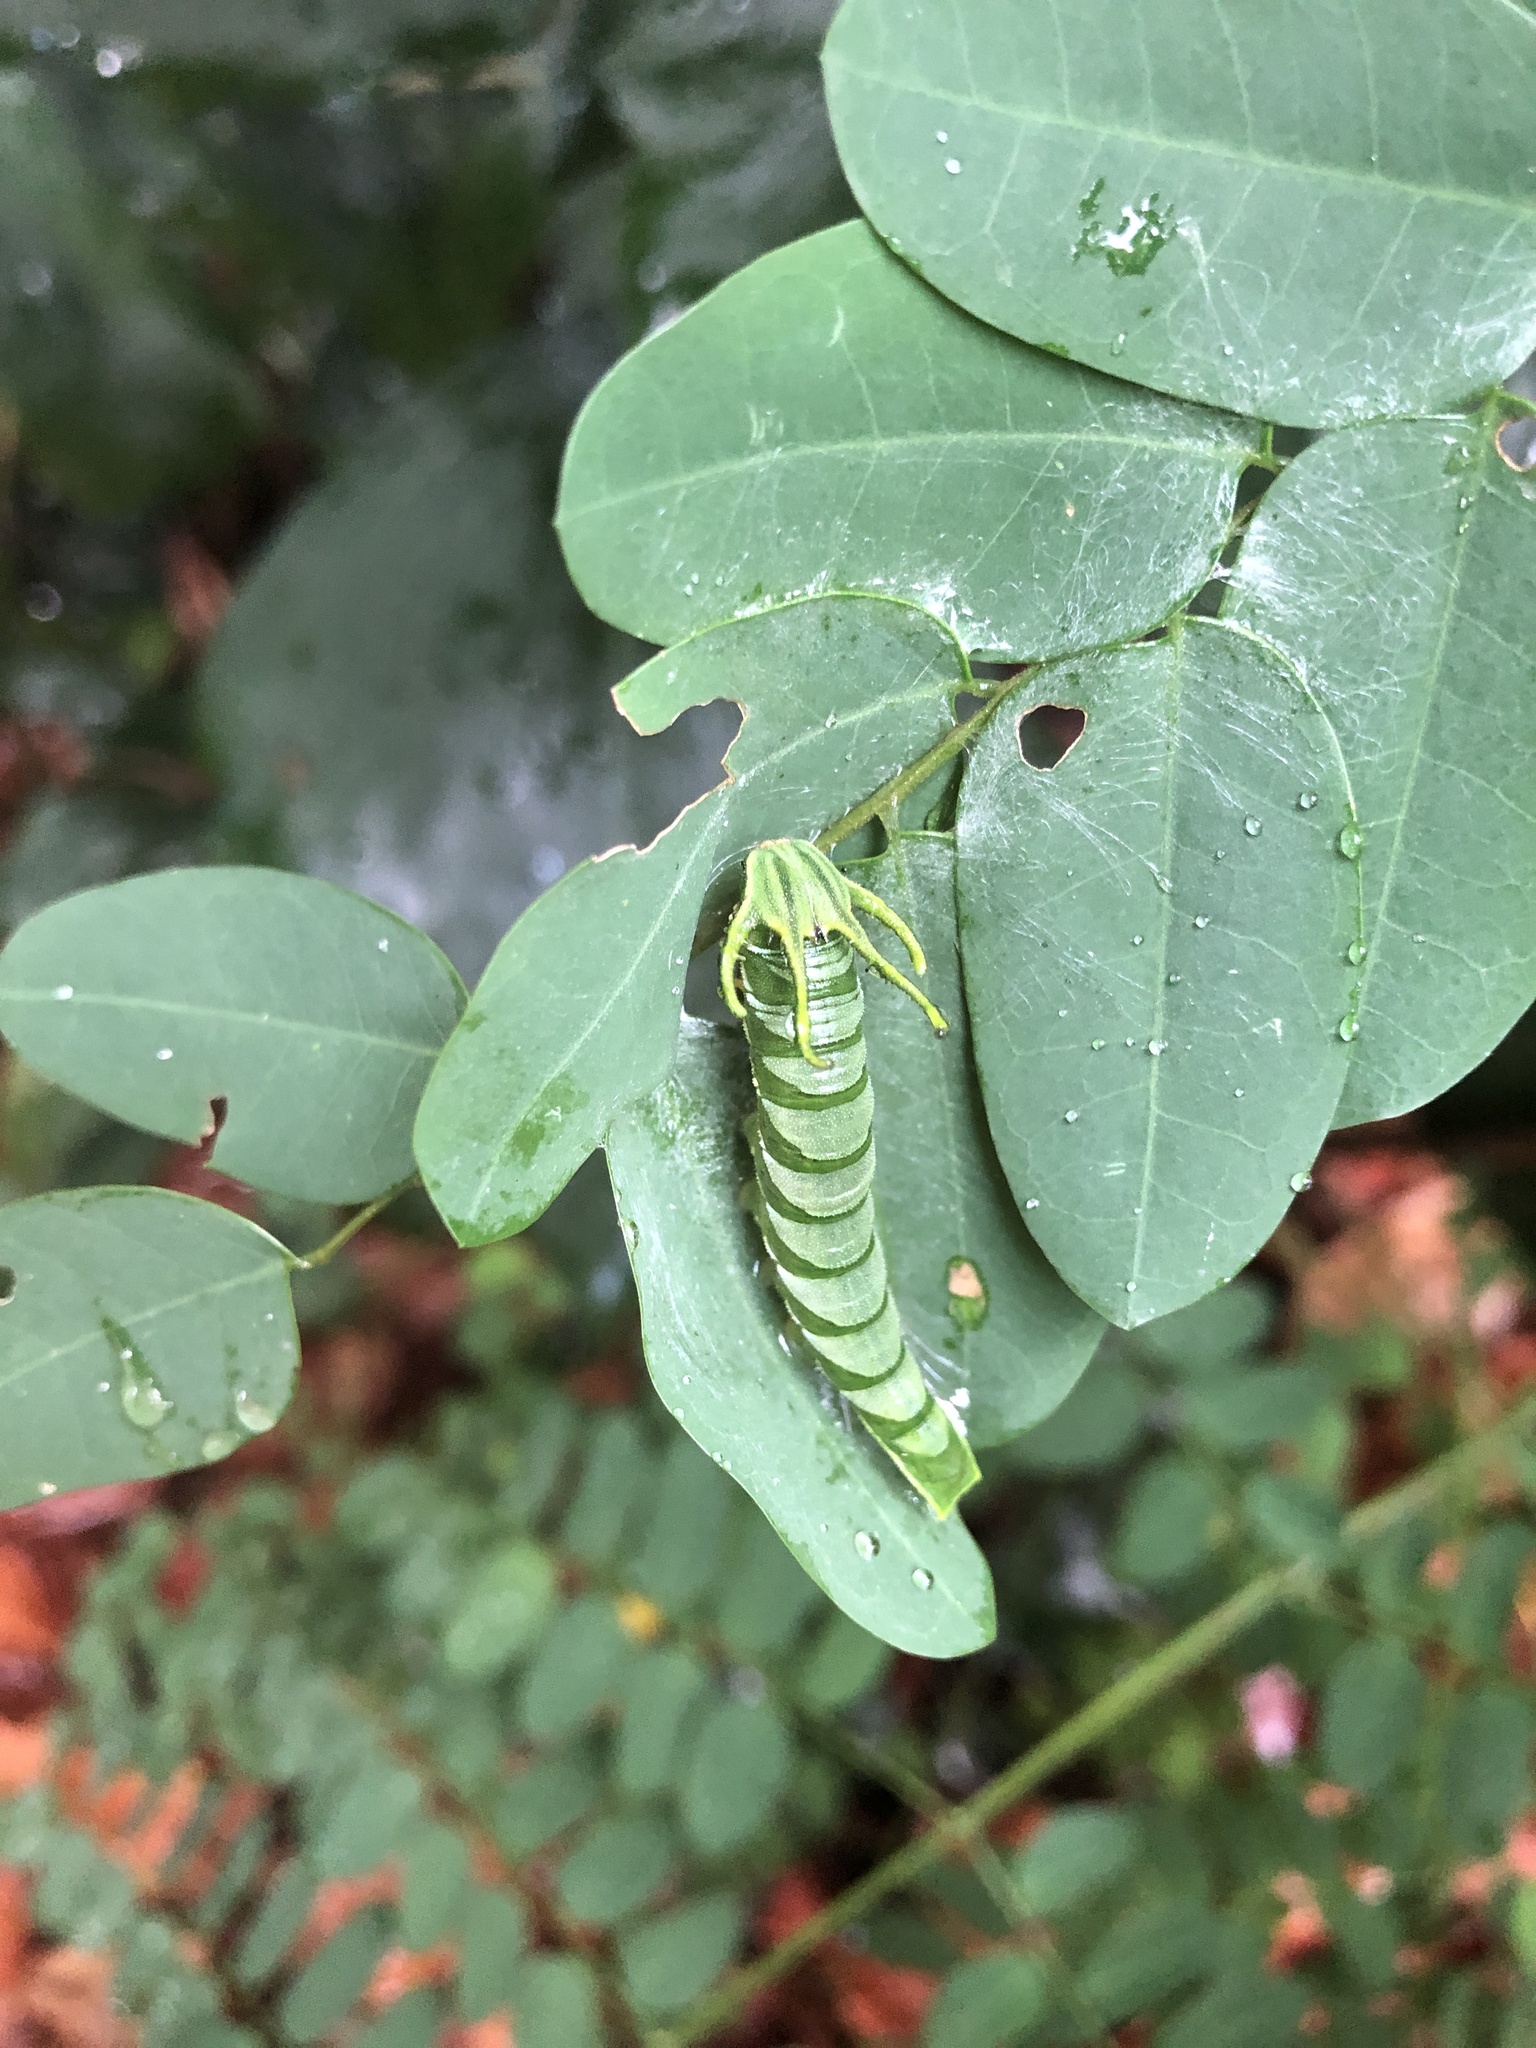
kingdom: Animalia
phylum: Arthropoda
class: Insecta
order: Lepidoptera
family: Nymphalidae
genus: Polyura
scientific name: Polyura hebe
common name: Plain nawab
